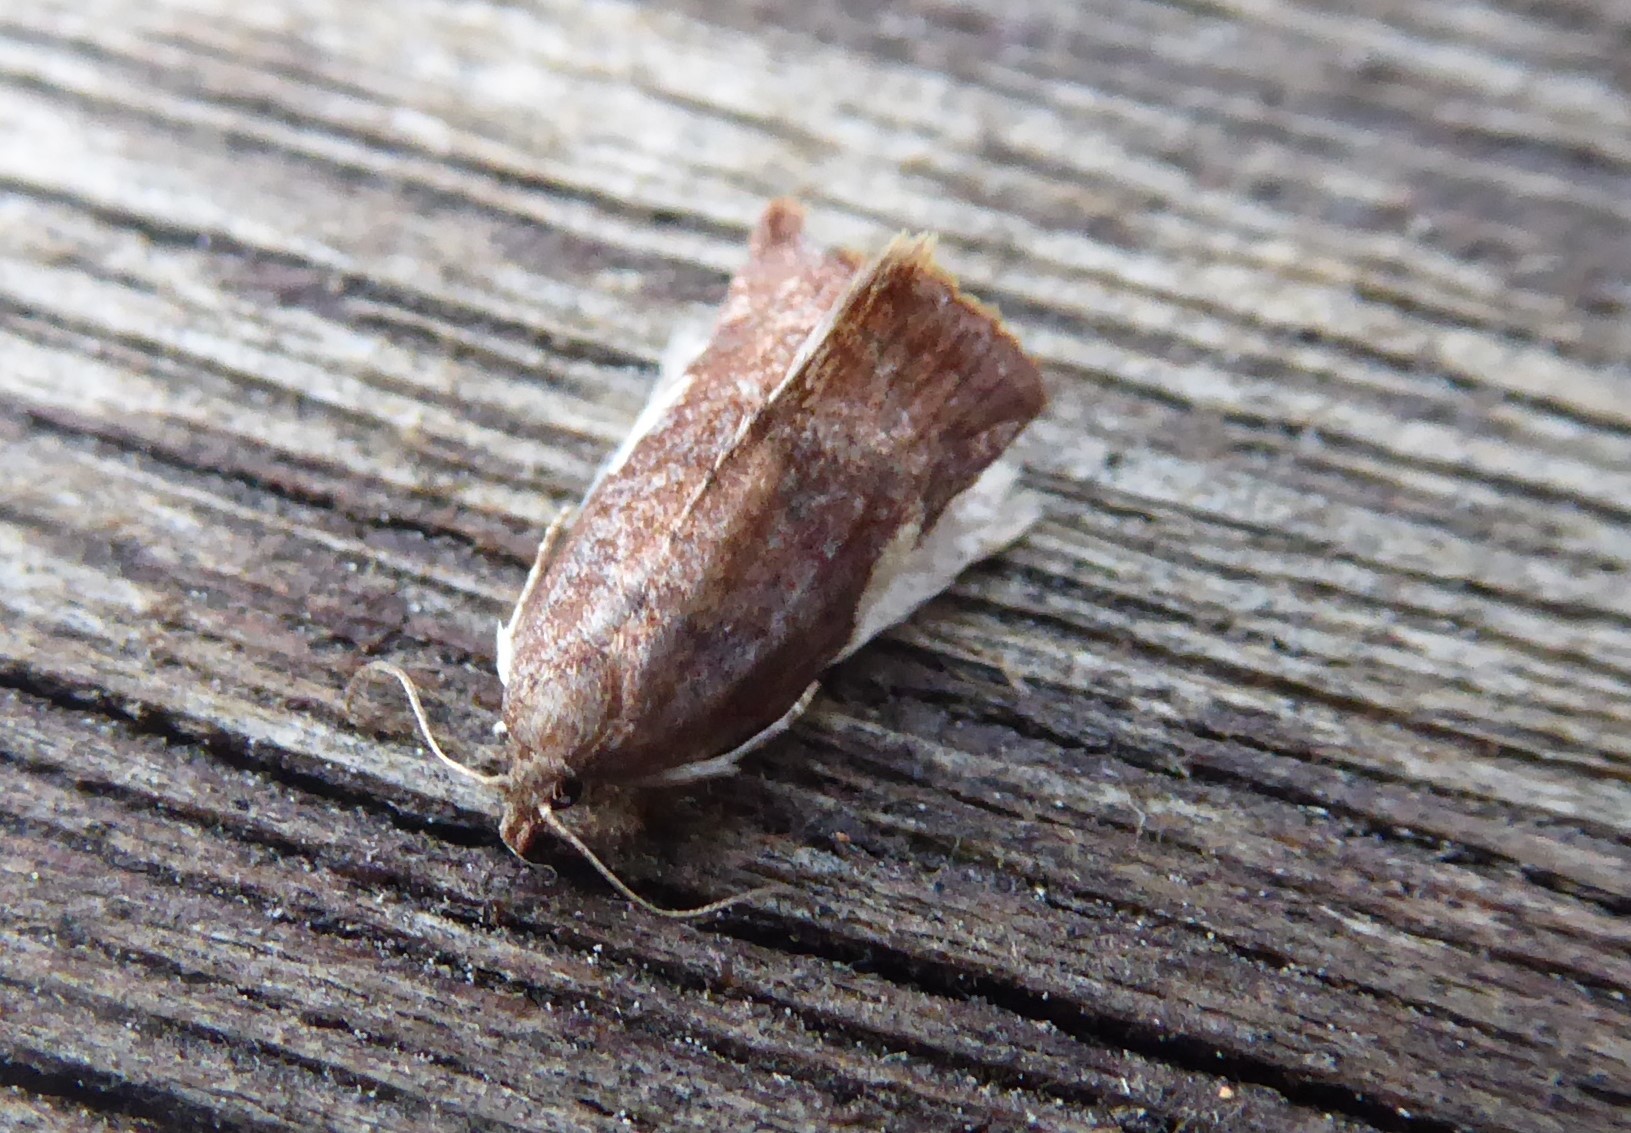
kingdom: Animalia
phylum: Arthropoda
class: Insecta
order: Lepidoptera
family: Tortricidae
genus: Pyrgotis
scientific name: Pyrgotis plagiatana
